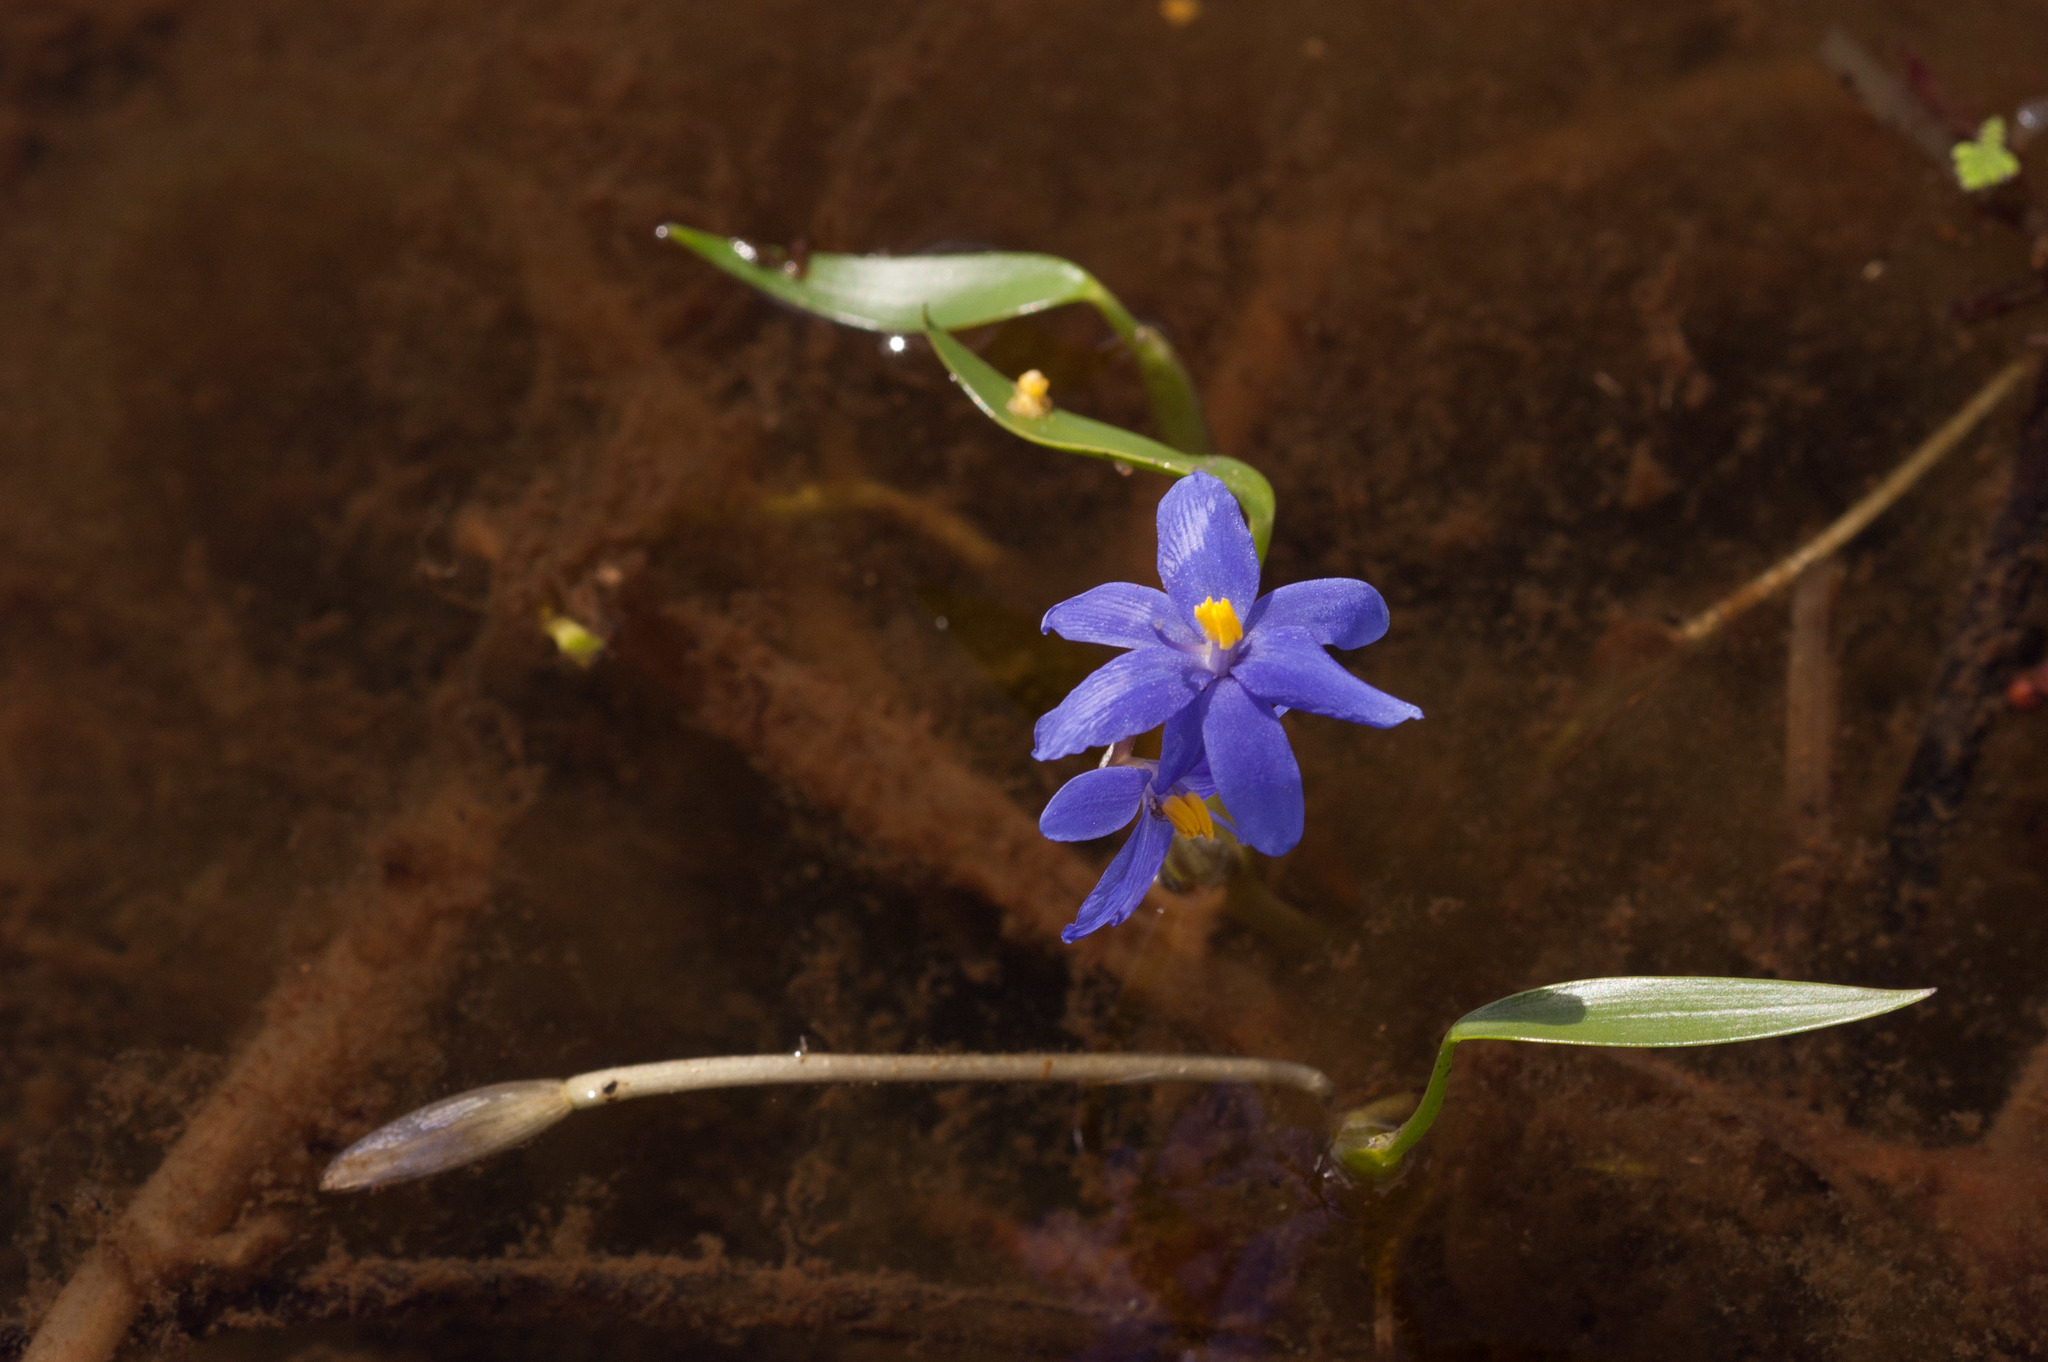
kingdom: Plantae
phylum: Tracheophyta
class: Liliopsida
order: Commelinales
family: Pontederiaceae
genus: Pontederia
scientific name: Pontederia australasica
